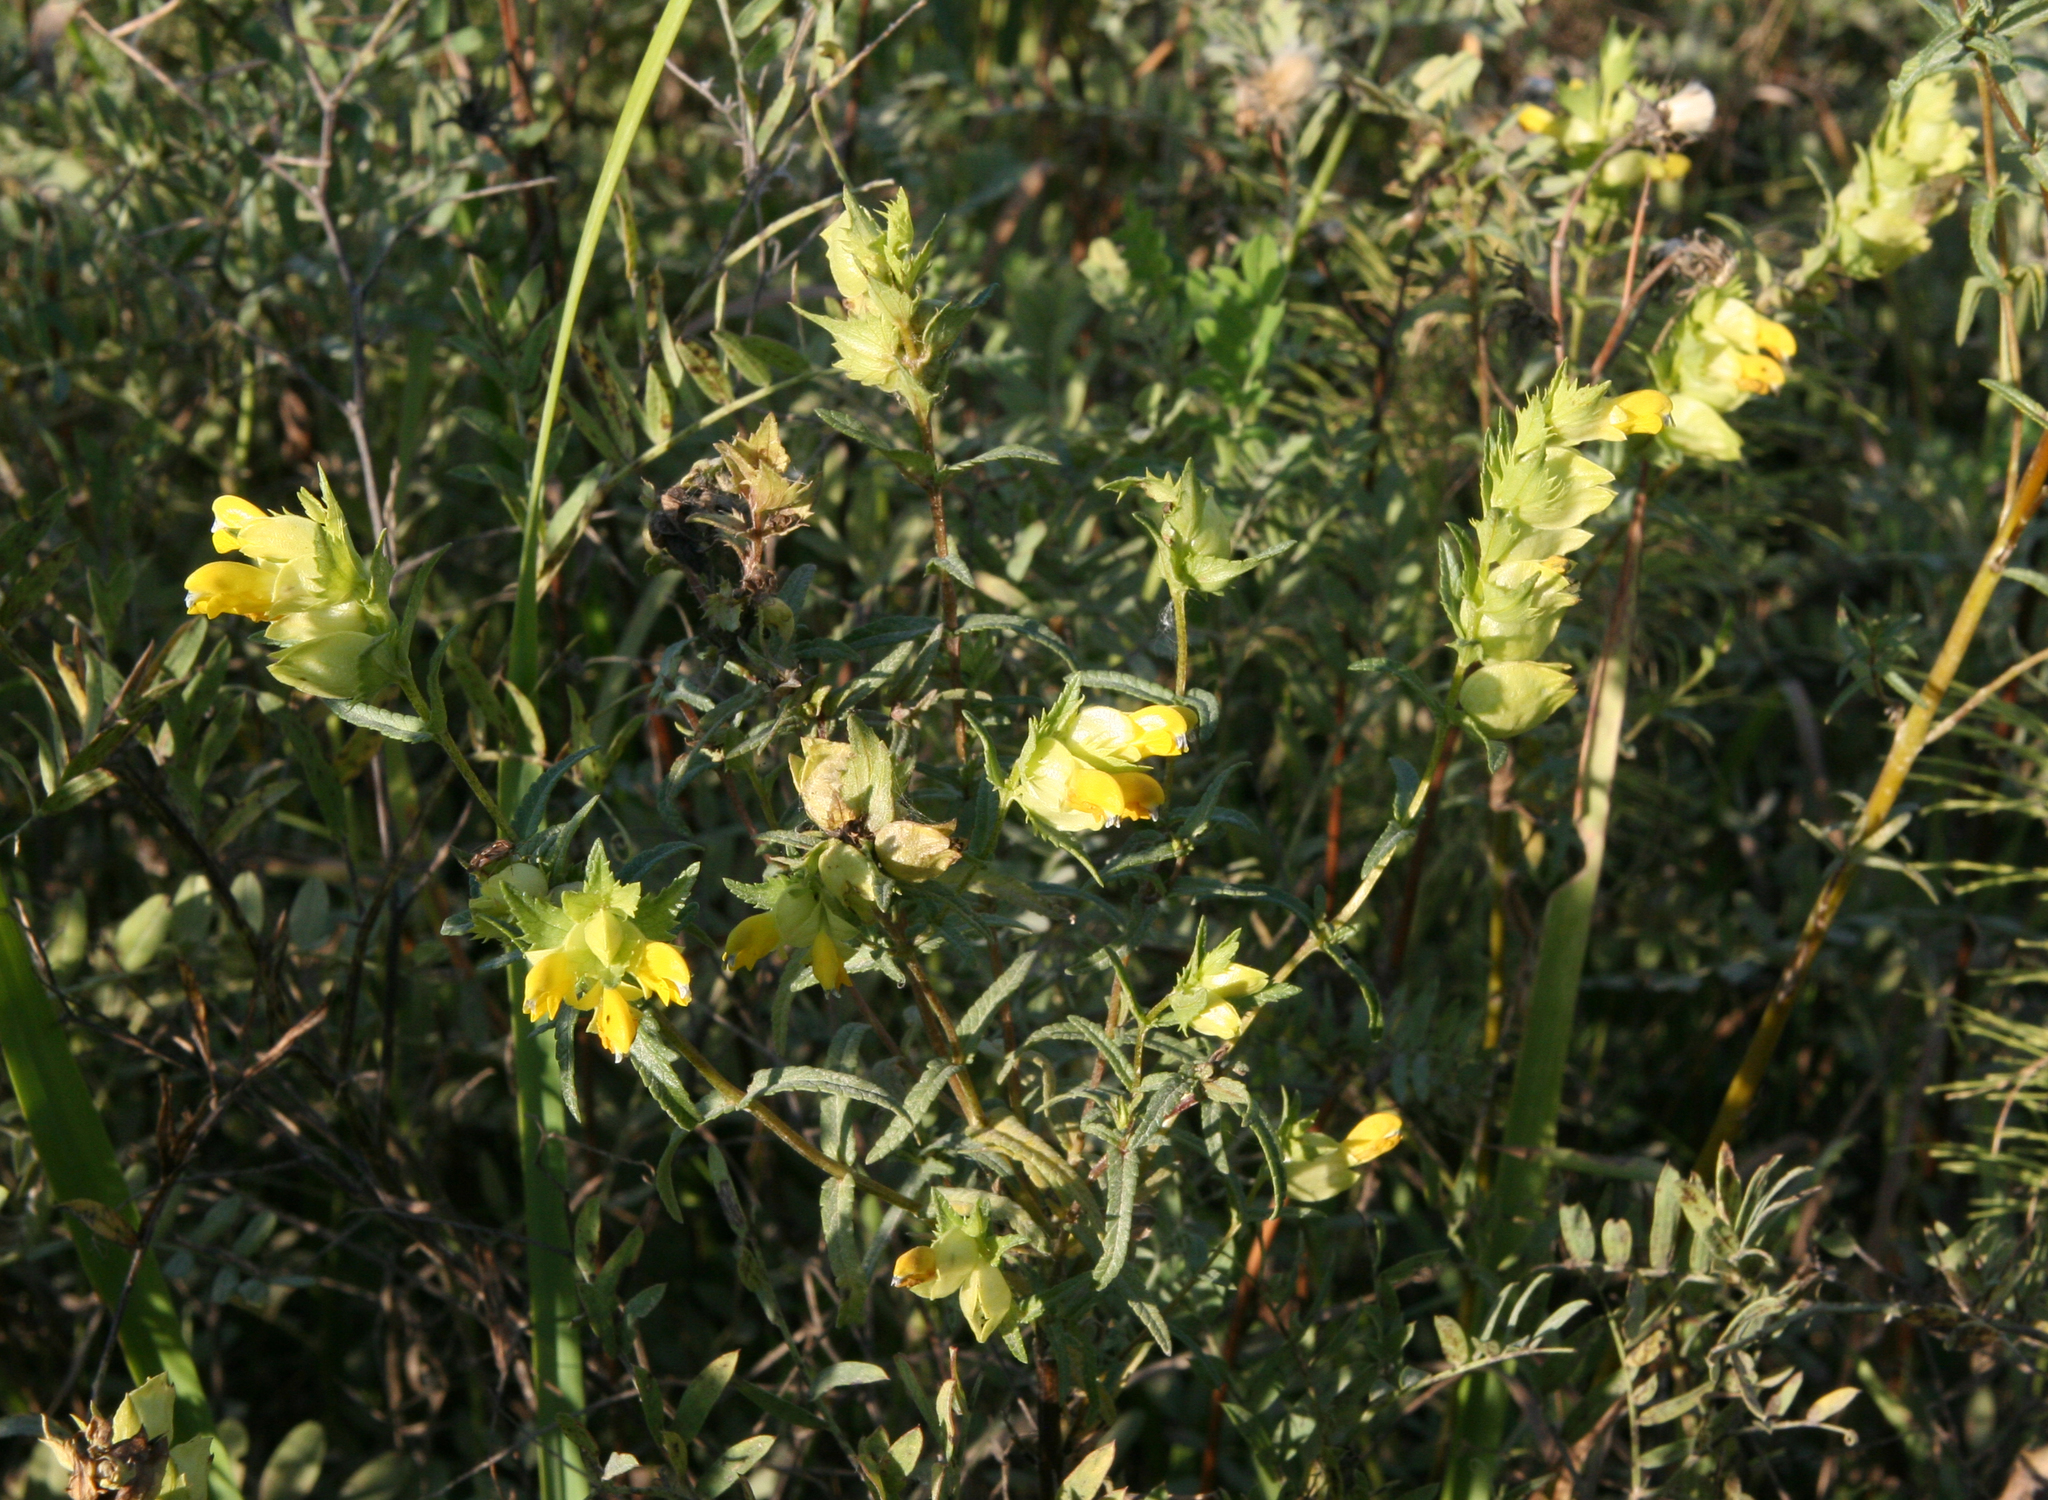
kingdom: Plantae
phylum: Tracheophyta
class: Magnoliopsida
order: Lamiales
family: Orobanchaceae
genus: Rhinanthus
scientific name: Rhinanthus serotinus
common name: Late-flowering yellow rattle
